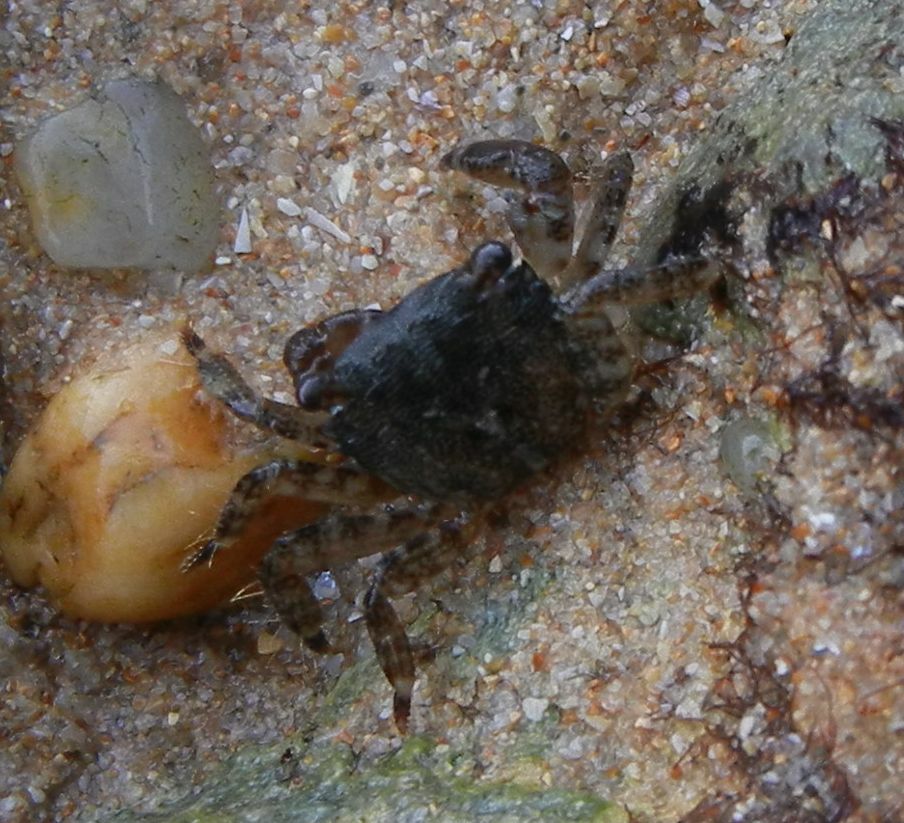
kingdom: Animalia
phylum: Arthropoda
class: Malacostraca
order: Decapoda
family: Grapsidae
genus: Pachygrapsus
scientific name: Pachygrapsus marmoratus
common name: Marbled rock crab
